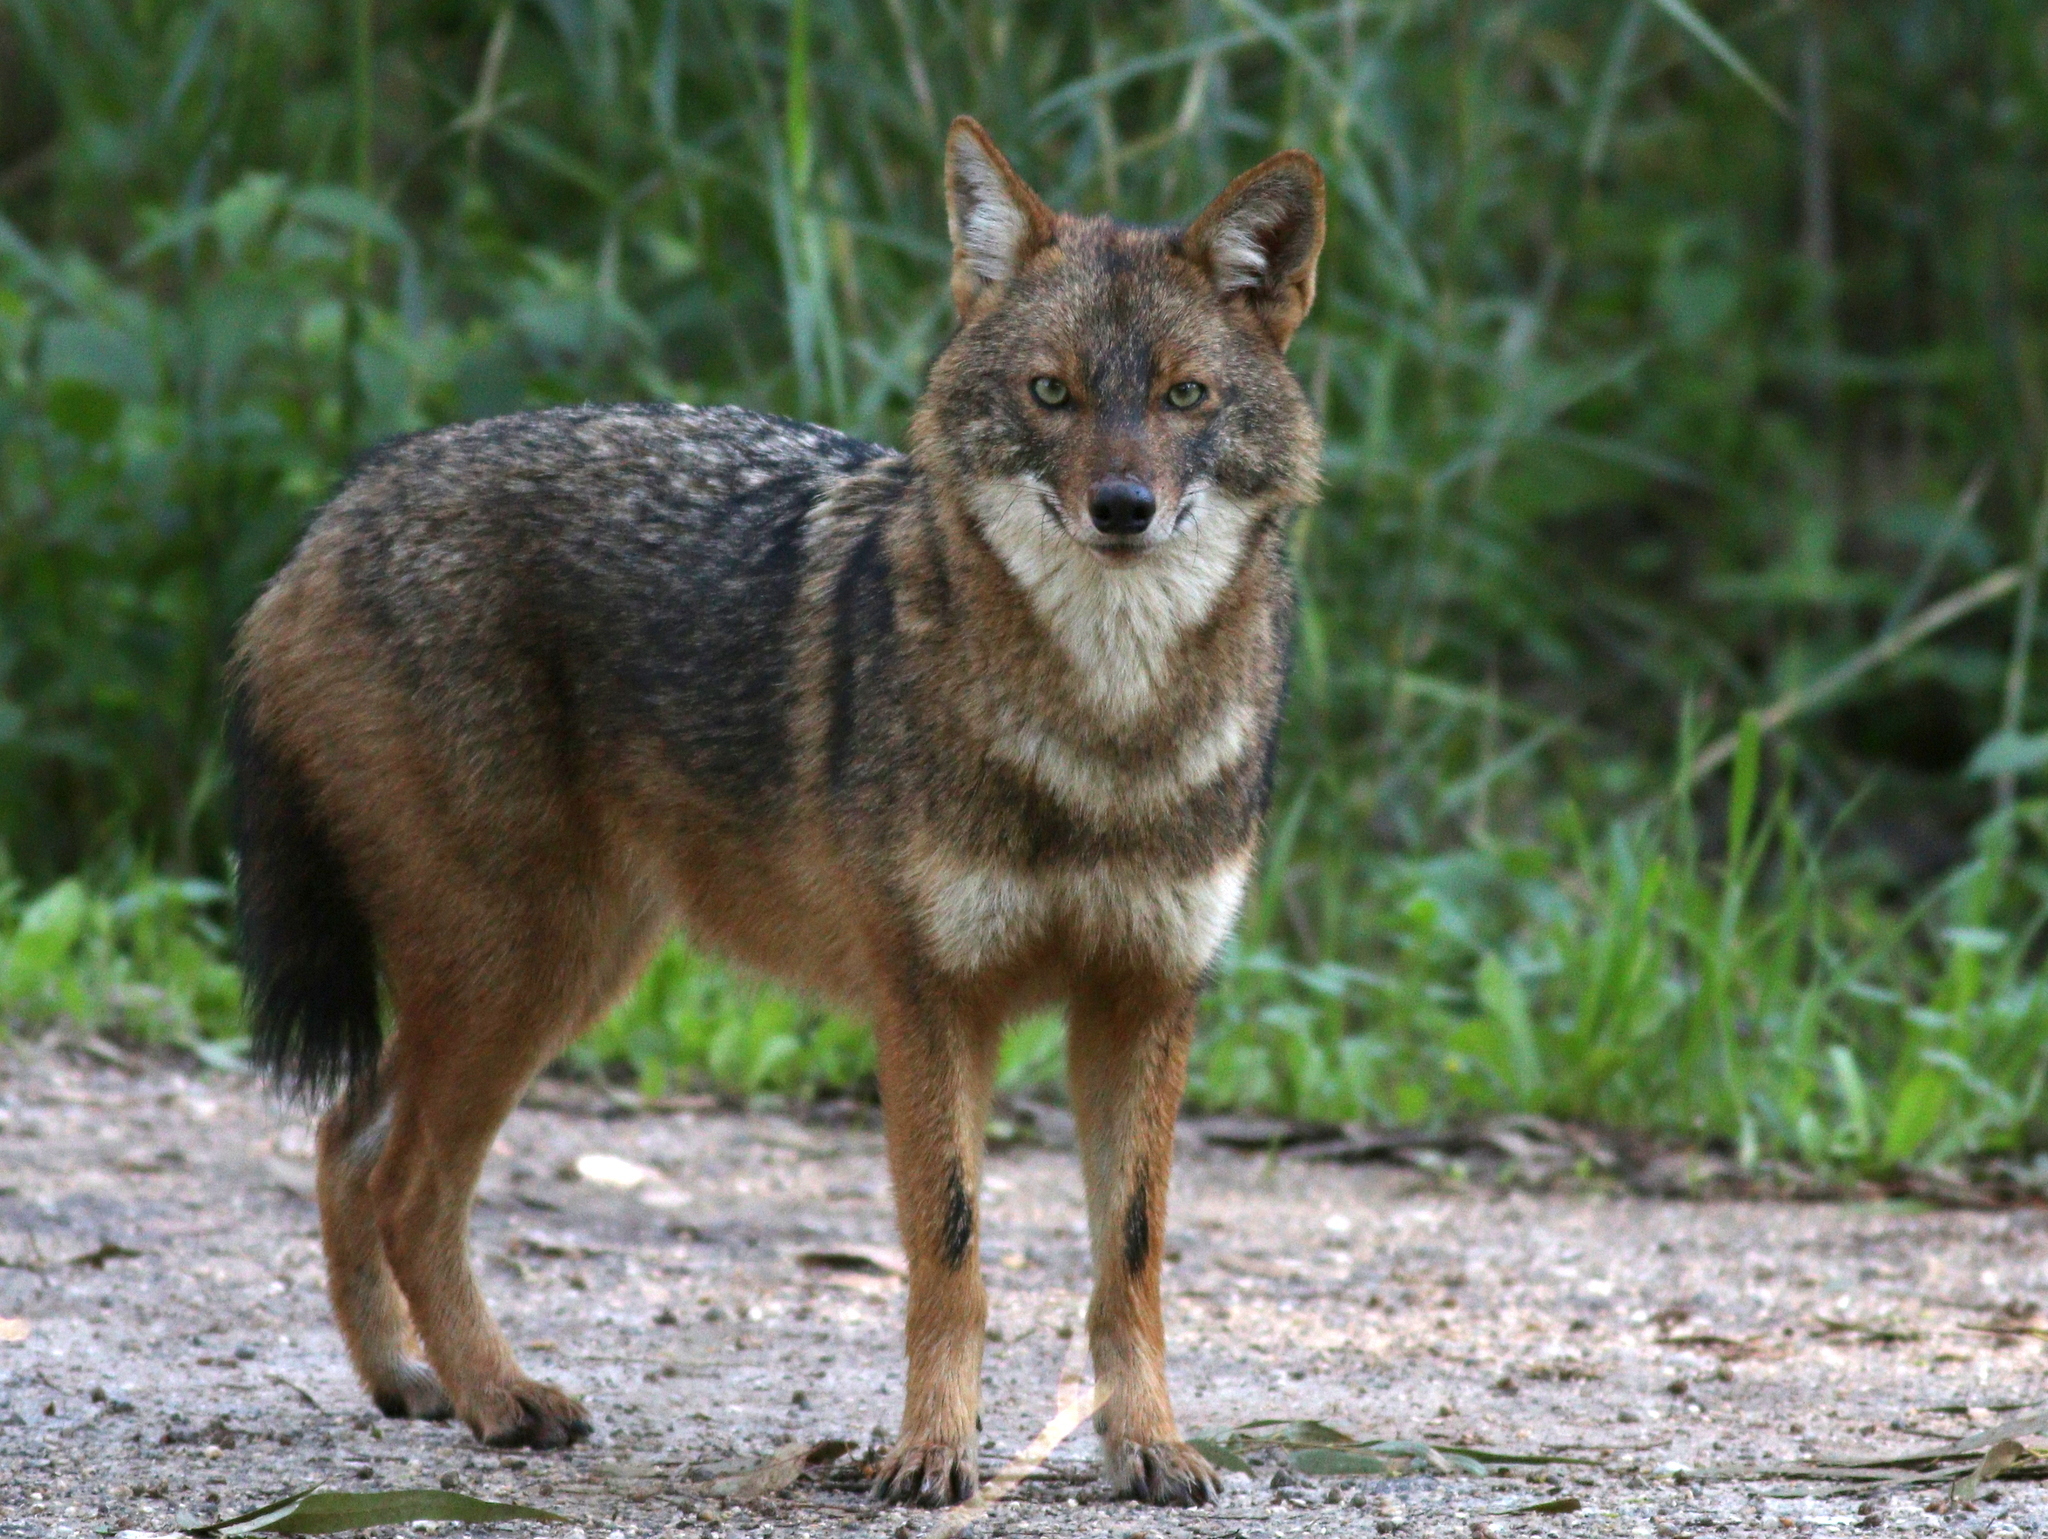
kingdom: Animalia
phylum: Chordata
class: Mammalia
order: Carnivora
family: Canidae
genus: Canis
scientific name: Canis aureus
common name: Golden jackal
